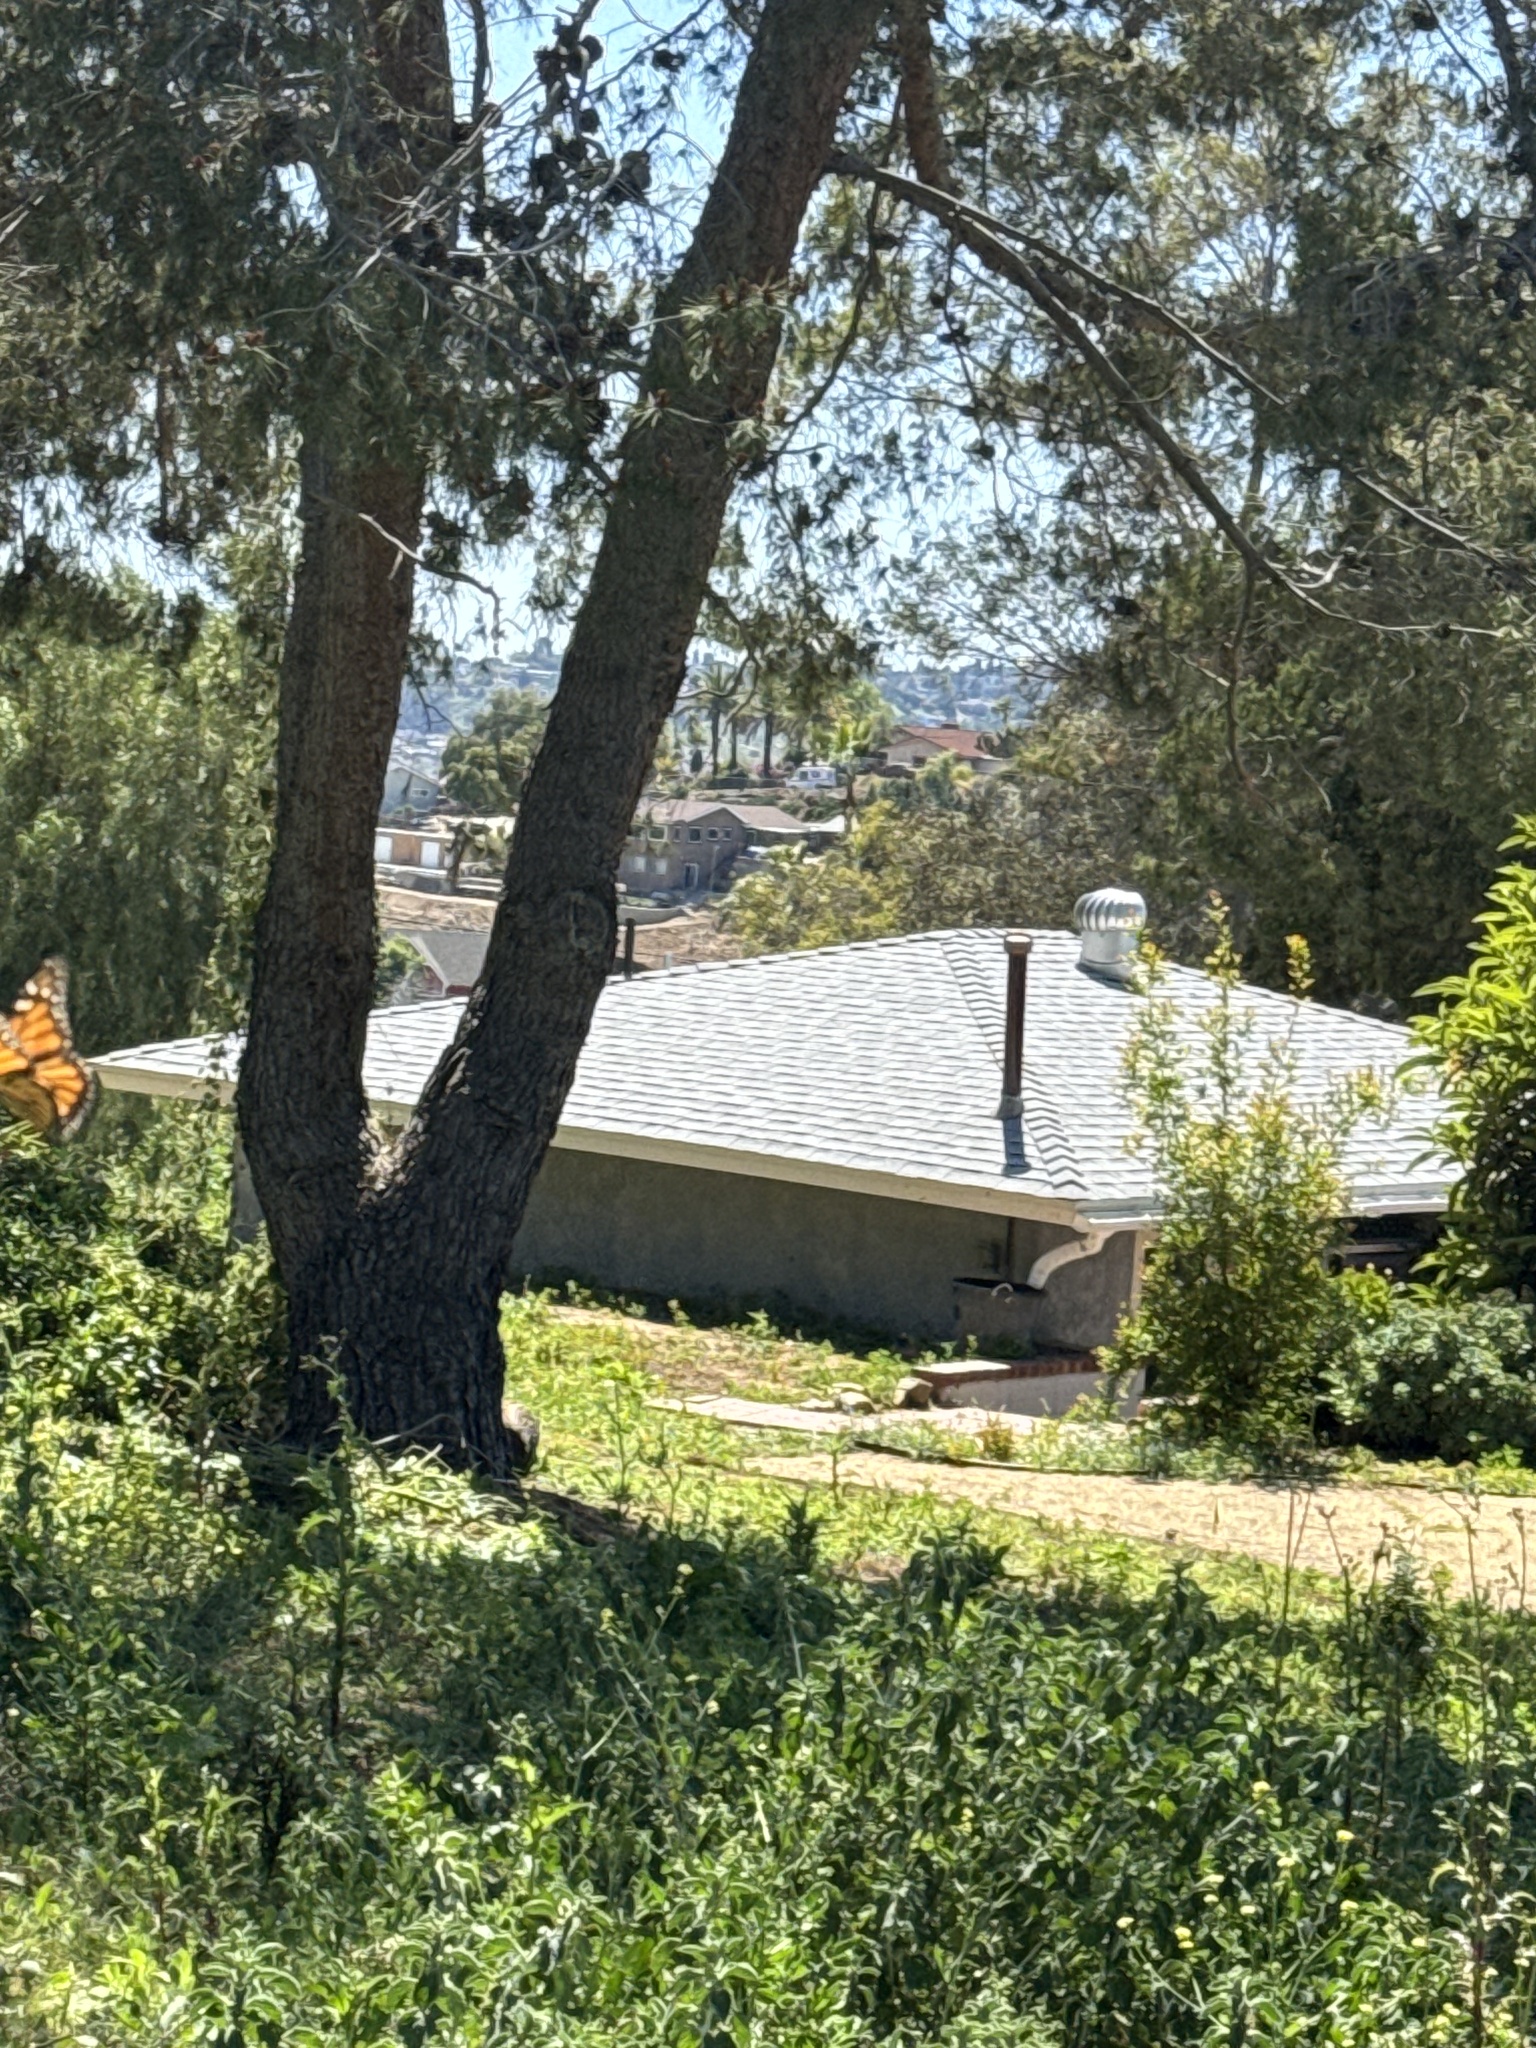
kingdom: Animalia
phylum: Arthropoda
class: Insecta
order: Lepidoptera
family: Nymphalidae
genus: Danaus
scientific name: Danaus plexippus
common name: Monarch
